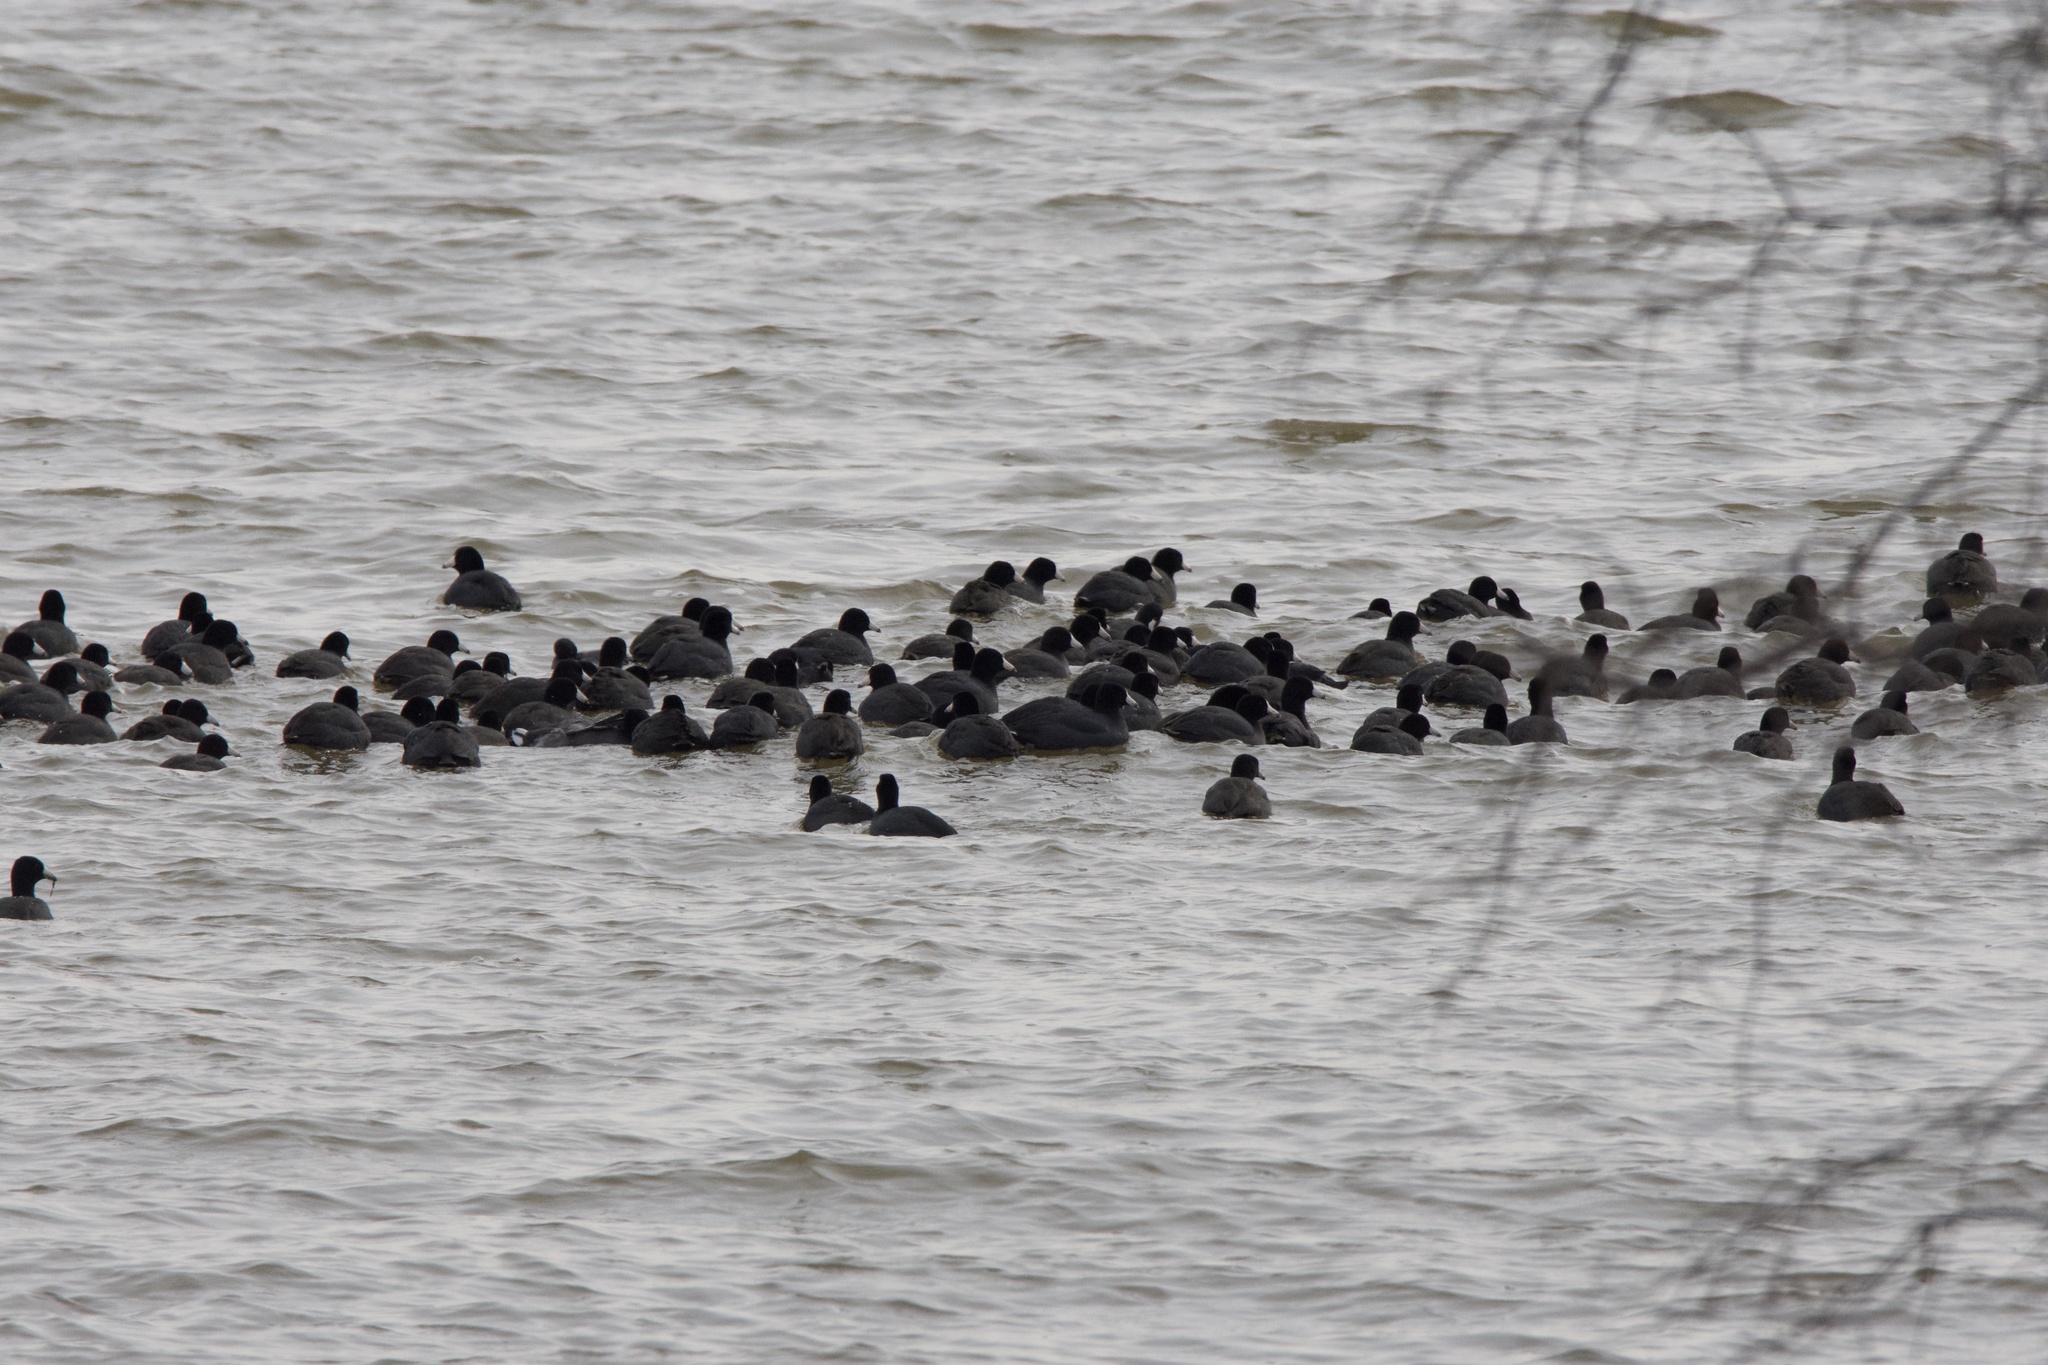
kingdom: Animalia
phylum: Chordata
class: Aves
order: Gruiformes
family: Rallidae
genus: Fulica
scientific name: Fulica americana
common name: American coot
